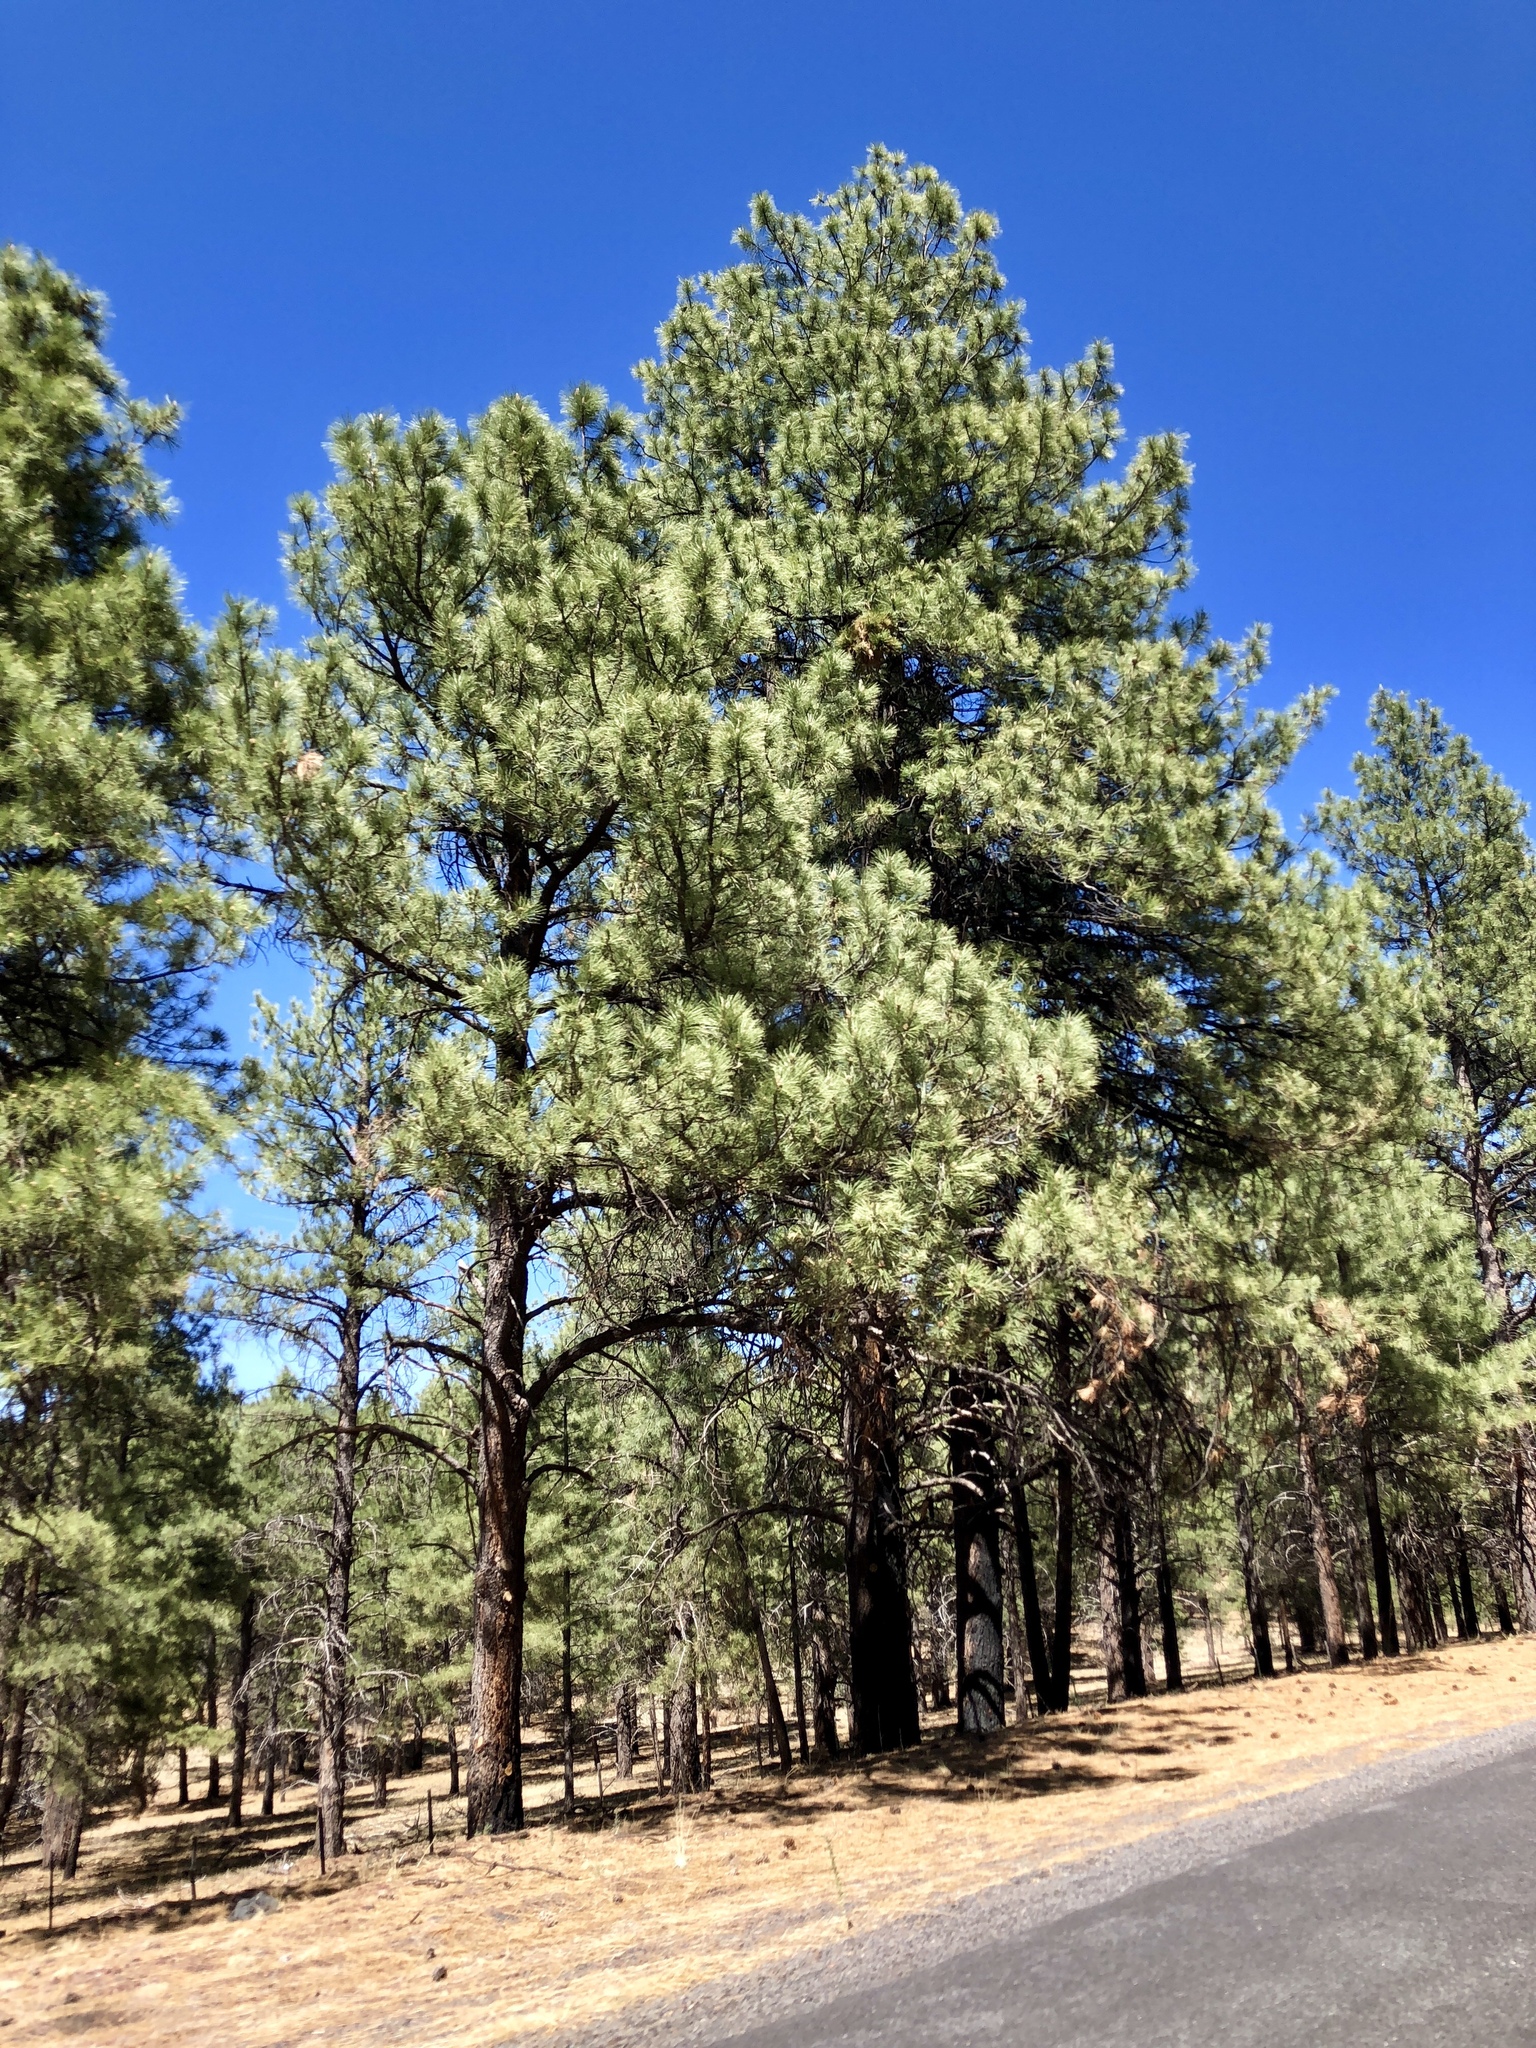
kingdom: Plantae
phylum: Tracheophyta
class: Pinopsida
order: Pinales
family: Pinaceae
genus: Pinus
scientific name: Pinus ponderosa
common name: Western yellow-pine
